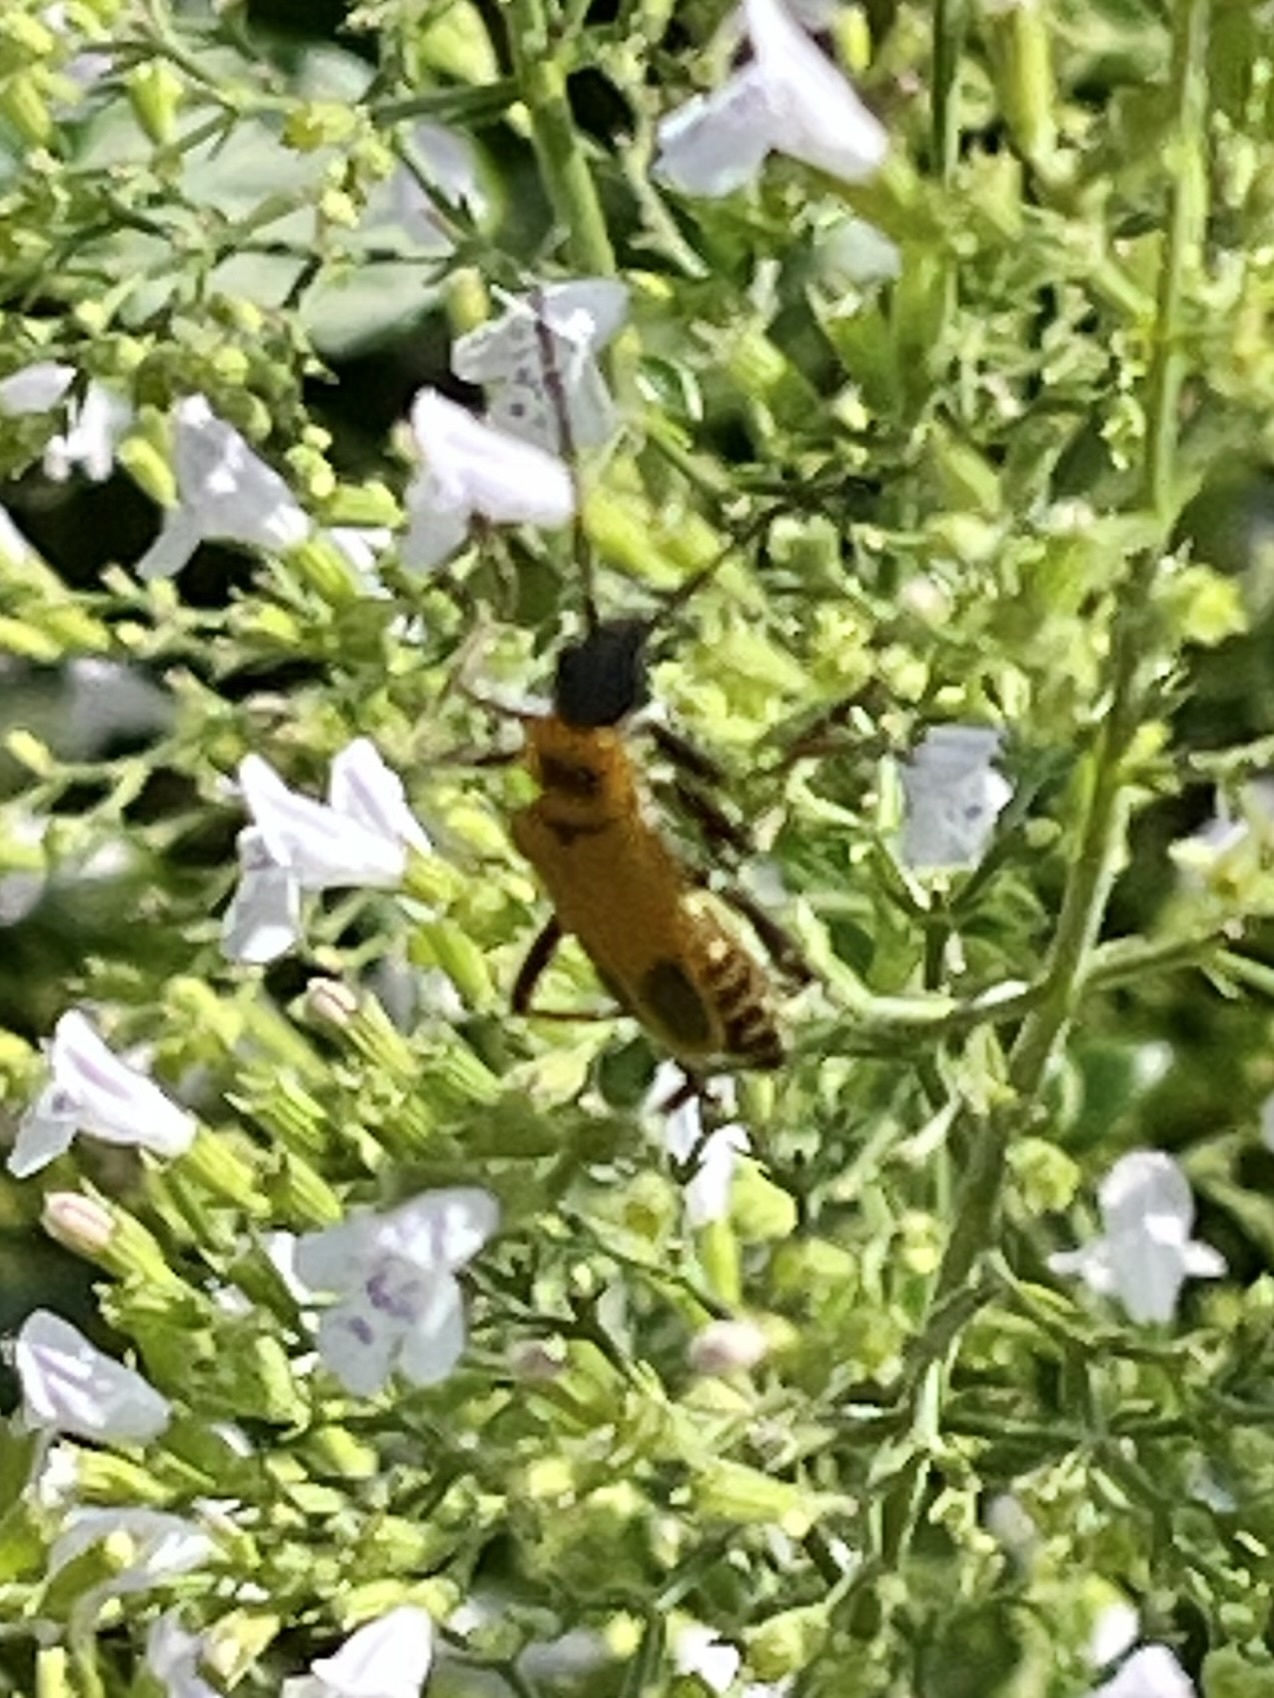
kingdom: Animalia
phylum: Arthropoda
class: Insecta
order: Coleoptera
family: Cantharidae
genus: Chauliognathus
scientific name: Chauliognathus pensylvanicus
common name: Goldenrod soldier beetle
